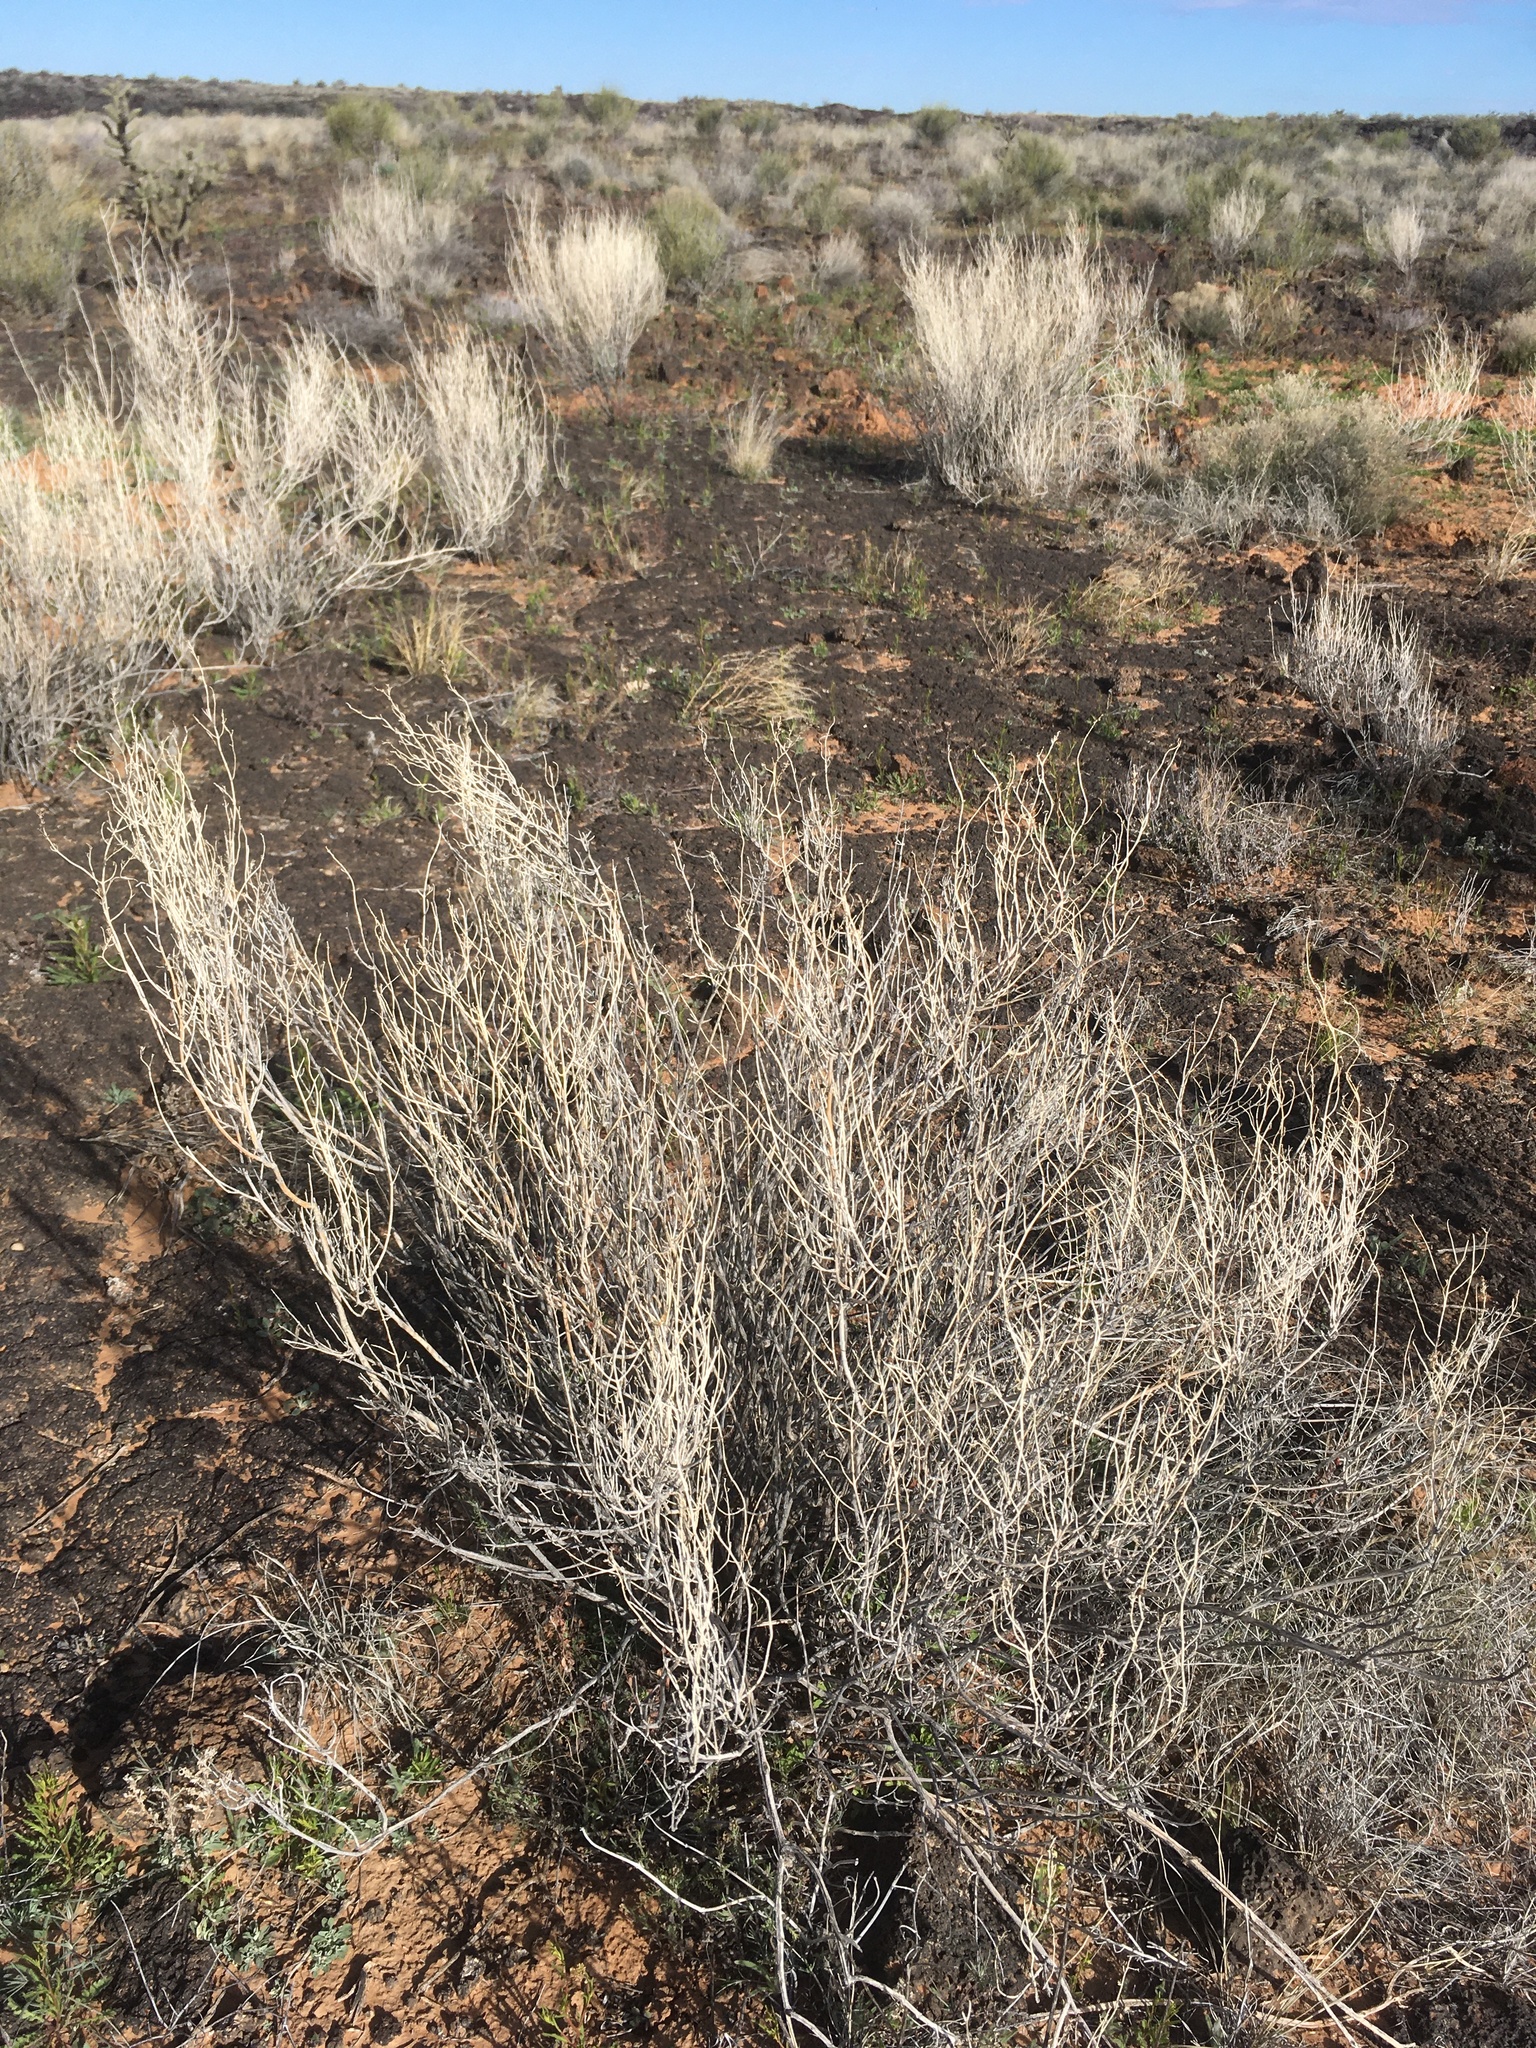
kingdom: Plantae
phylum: Tracheophyta
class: Magnoliopsida
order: Lamiales
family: Acanthaceae
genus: Carlowrightia
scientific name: Carlowrightia linearifolia
